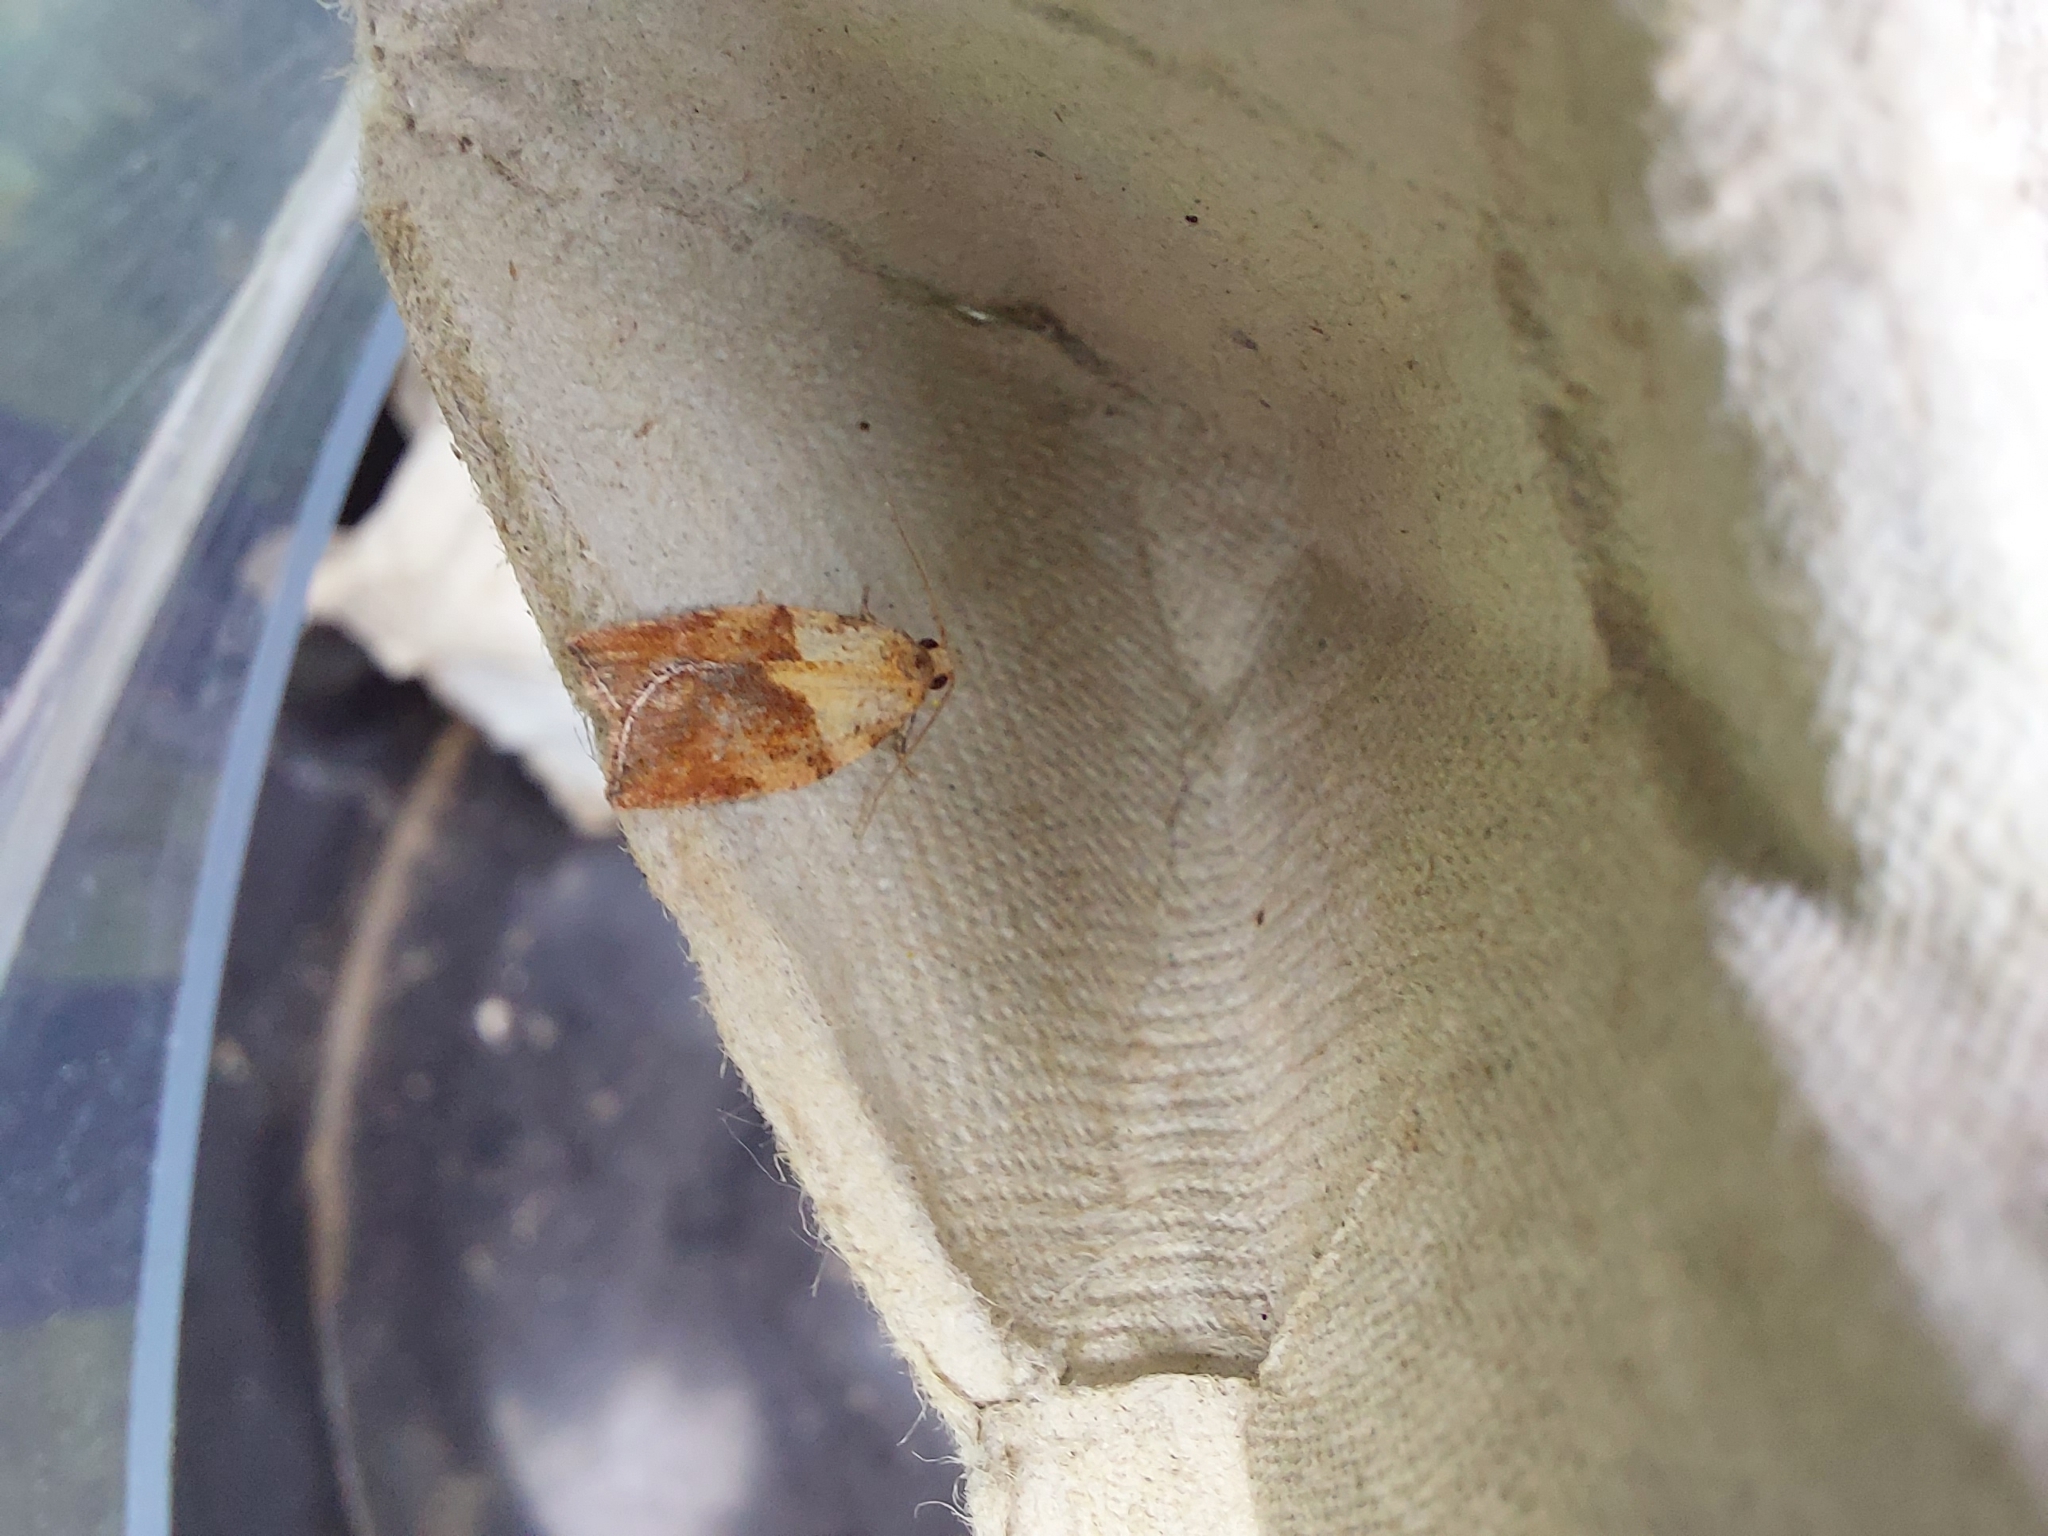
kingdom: Animalia
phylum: Arthropoda
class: Insecta
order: Lepidoptera
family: Tortricidae
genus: Epiphyas
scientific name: Epiphyas postvittana
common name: Light brown apple moth
